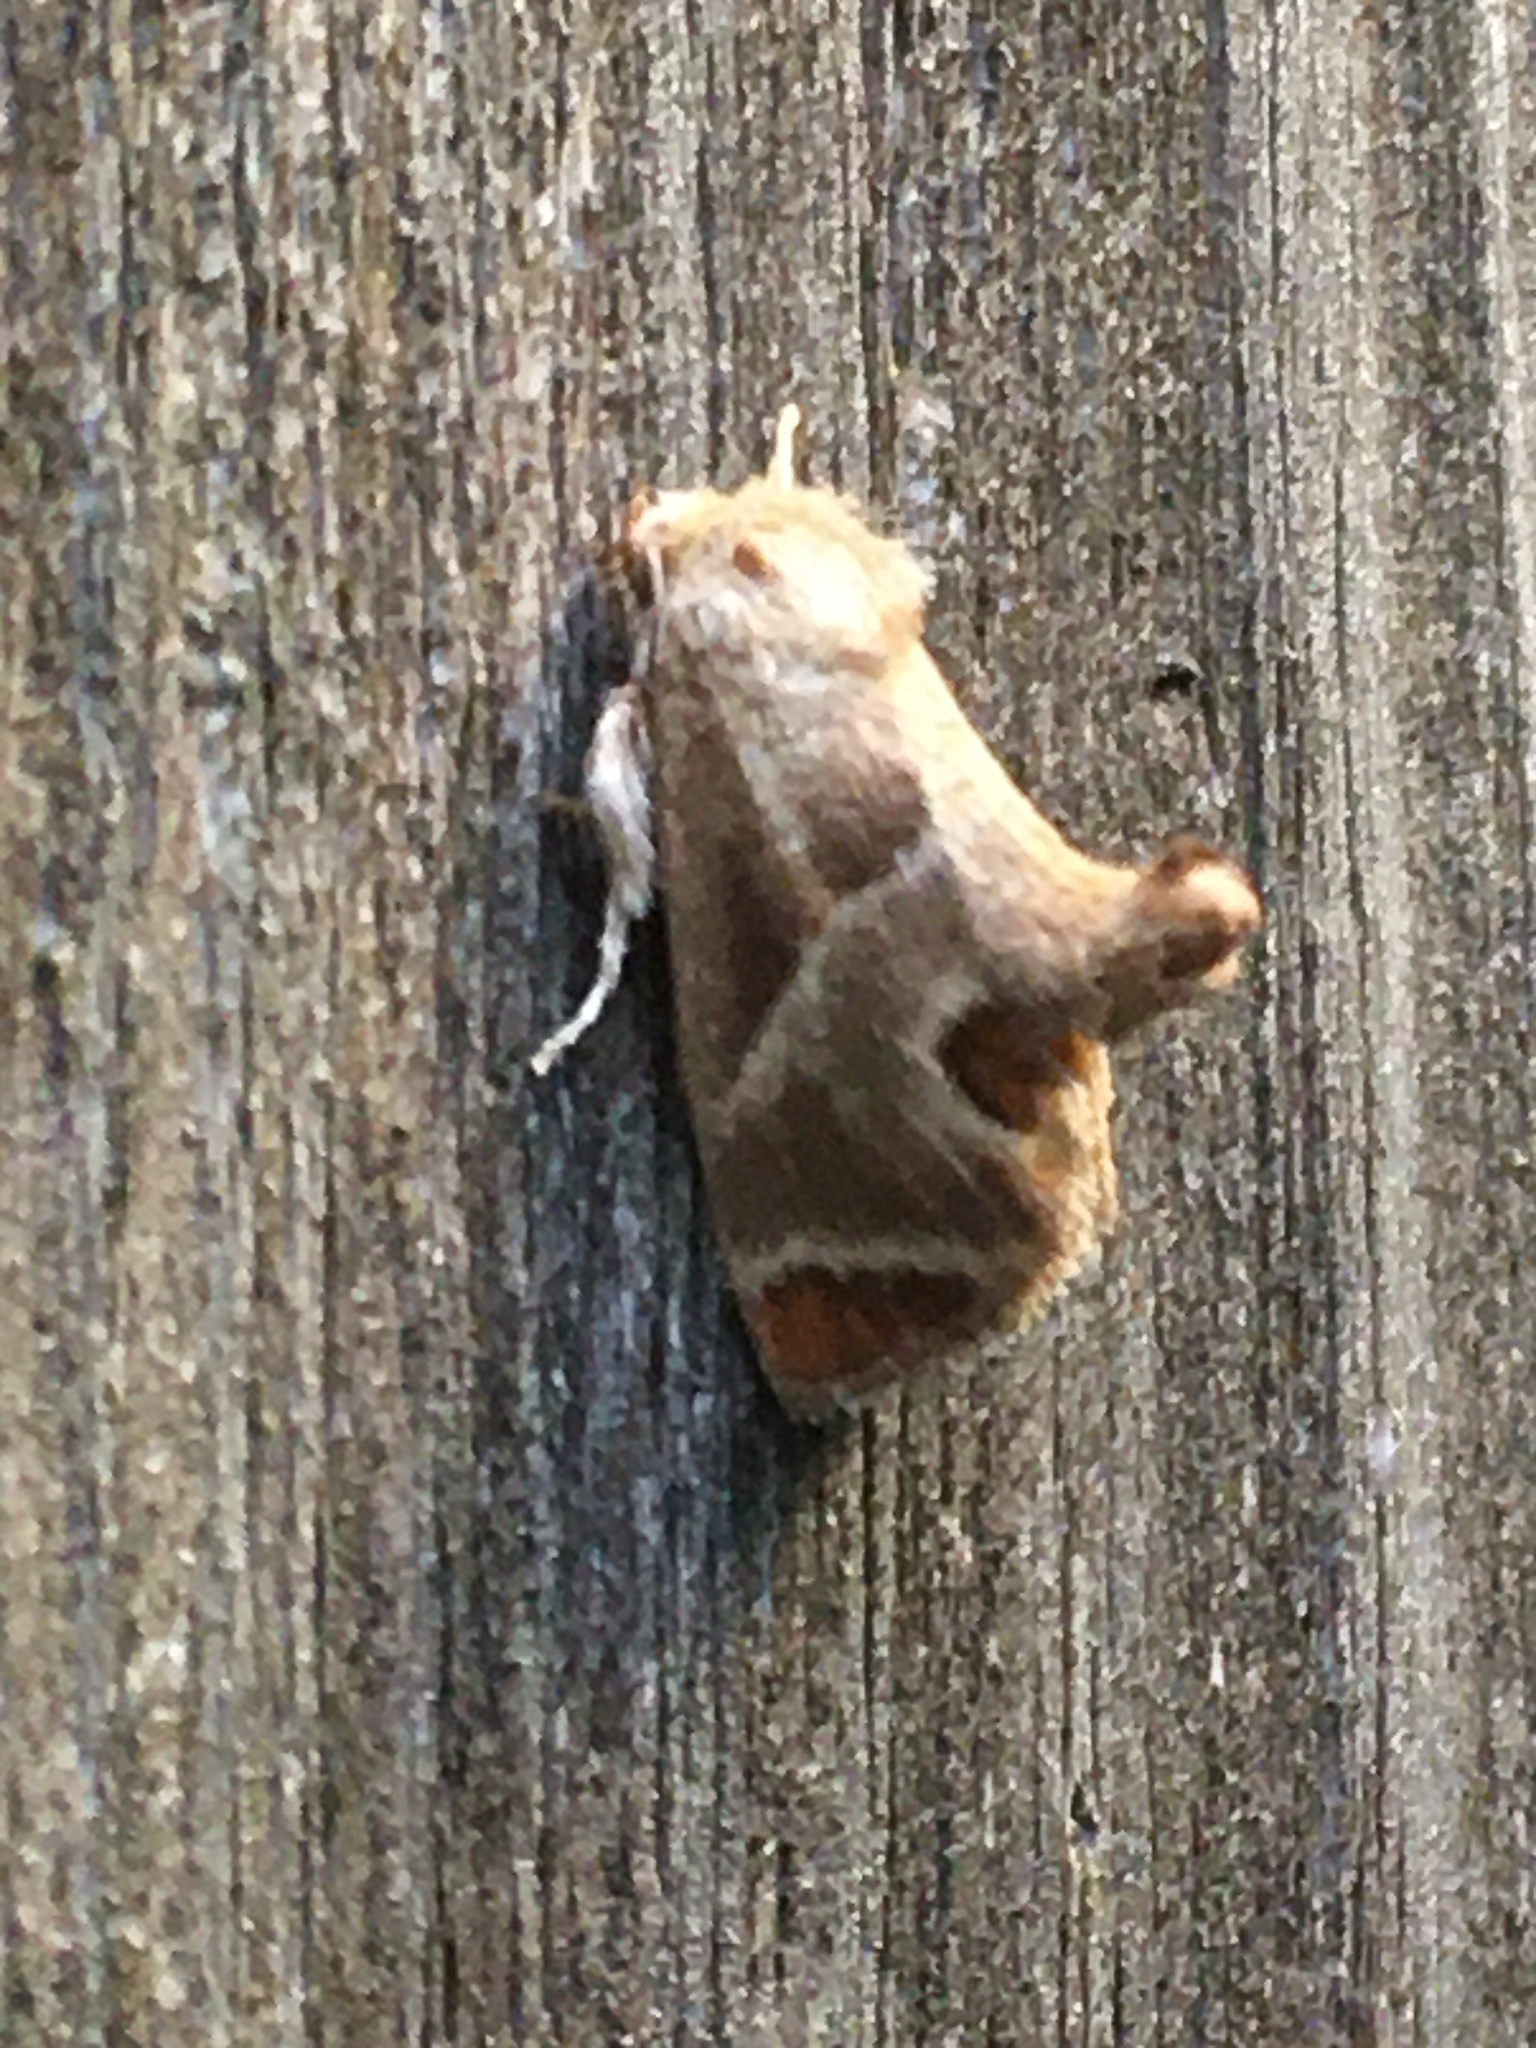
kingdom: Animalia
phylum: Arthropoda
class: Insecta
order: Lepidoptera
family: Limacodidae
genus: Apoda
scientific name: Apoda biguttata
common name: Shagreened slug moth
